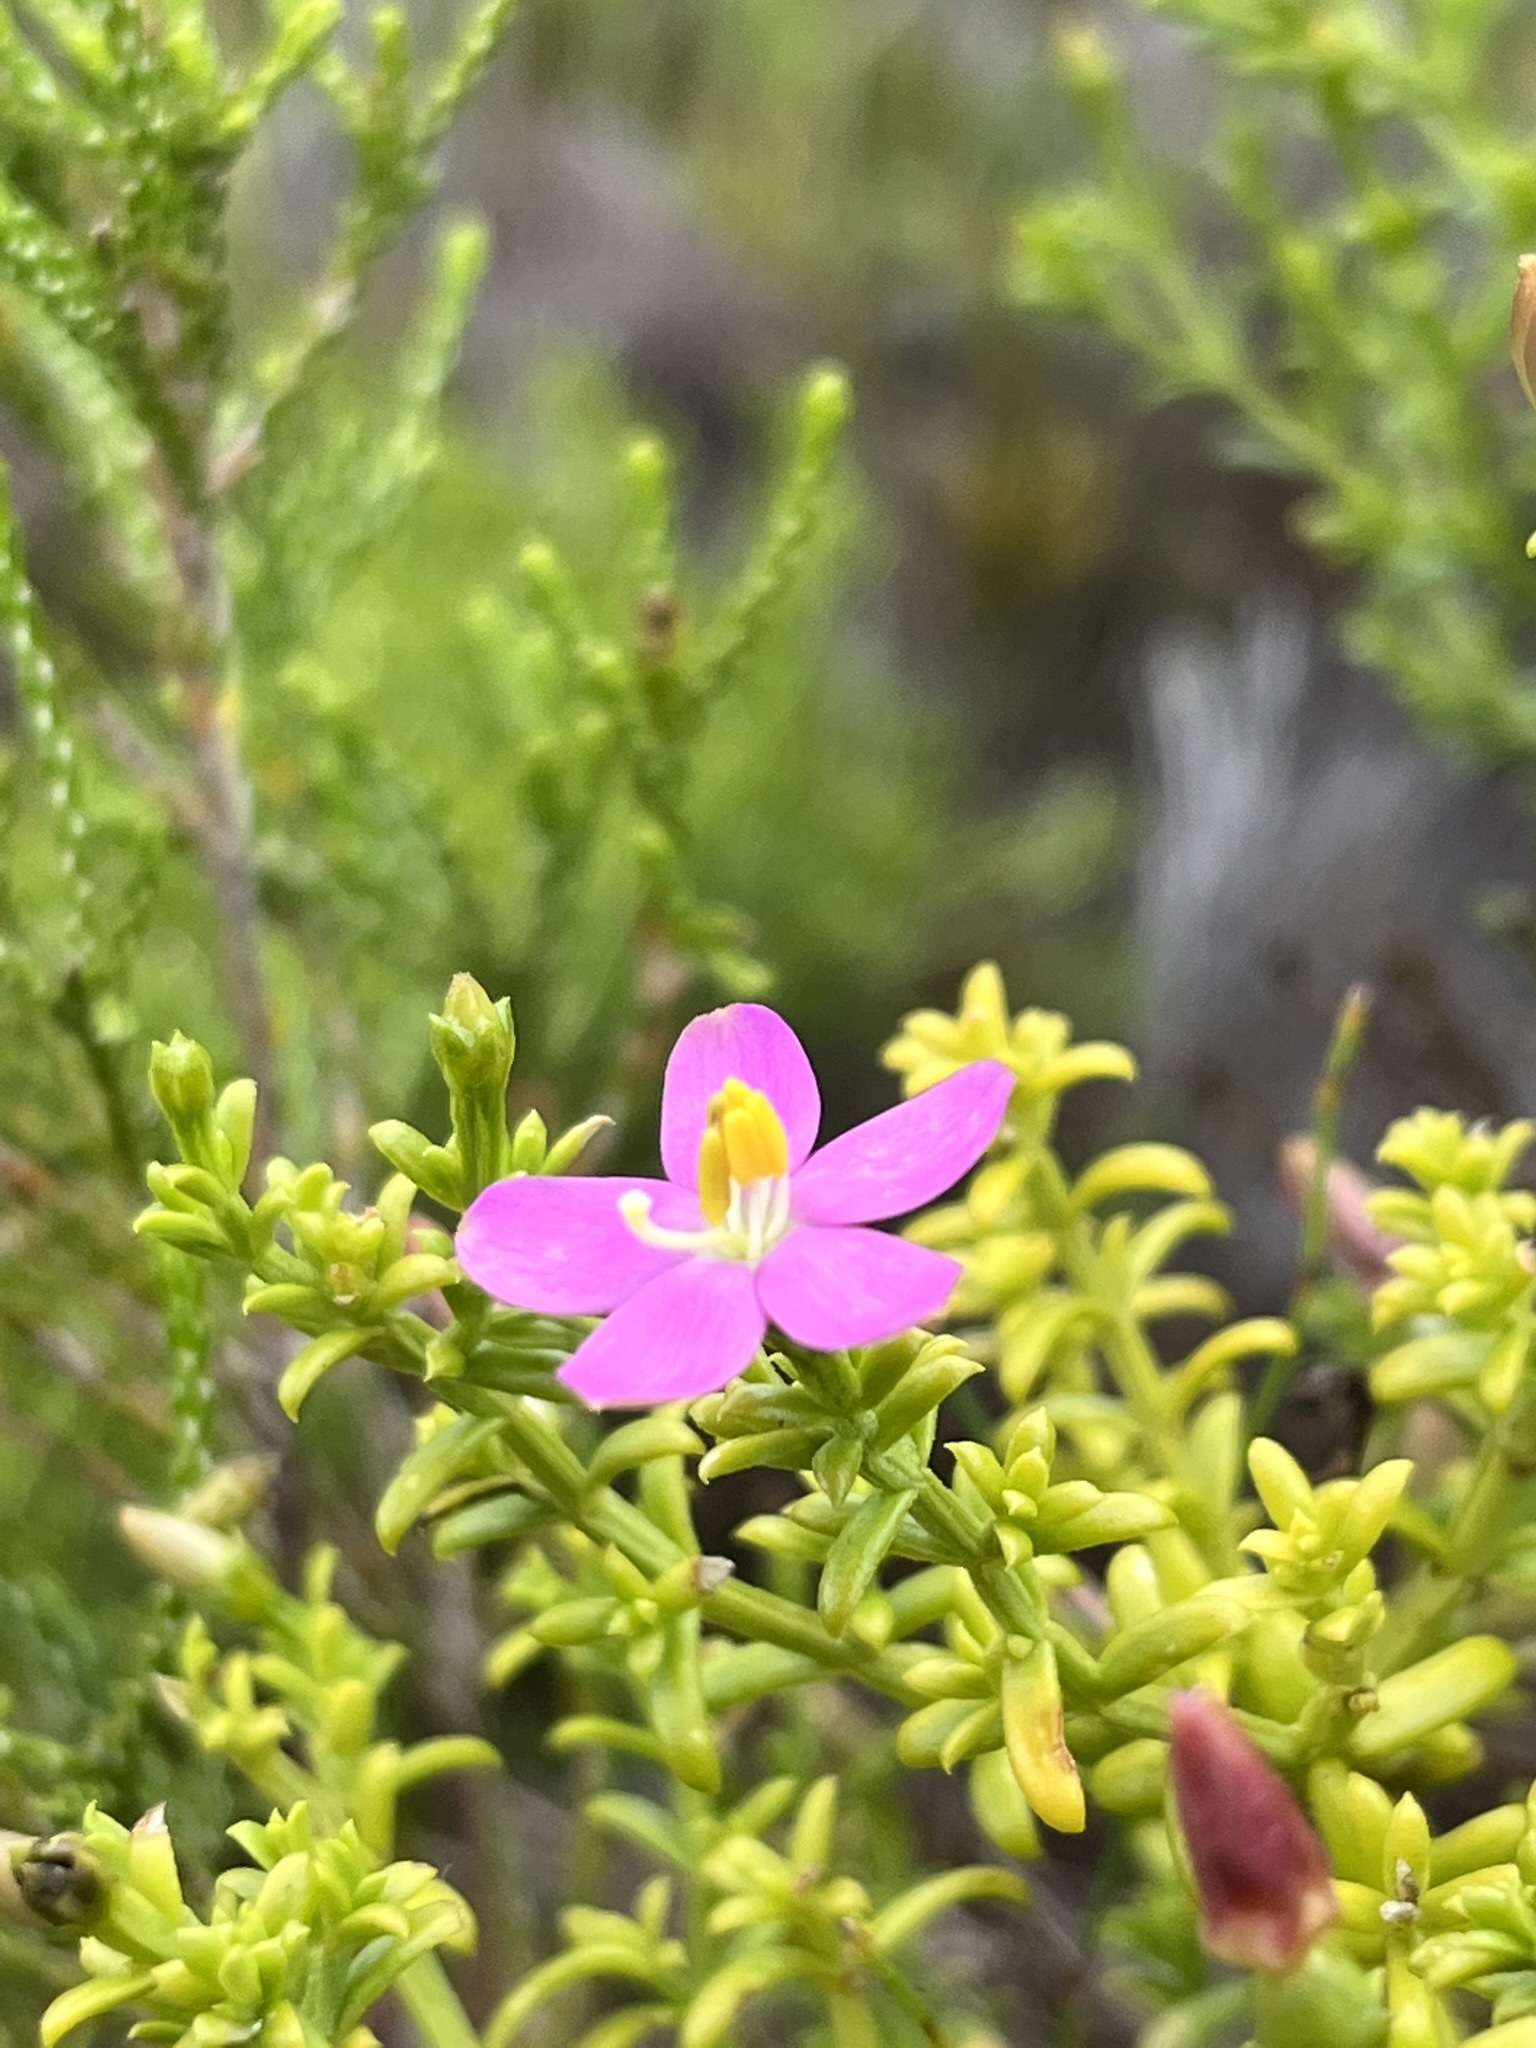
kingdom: Plantae
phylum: Tracheophyta
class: Magnoliopsida
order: Gentianales
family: Gentianaceae
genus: Chironia
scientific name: Chironia baccifera
